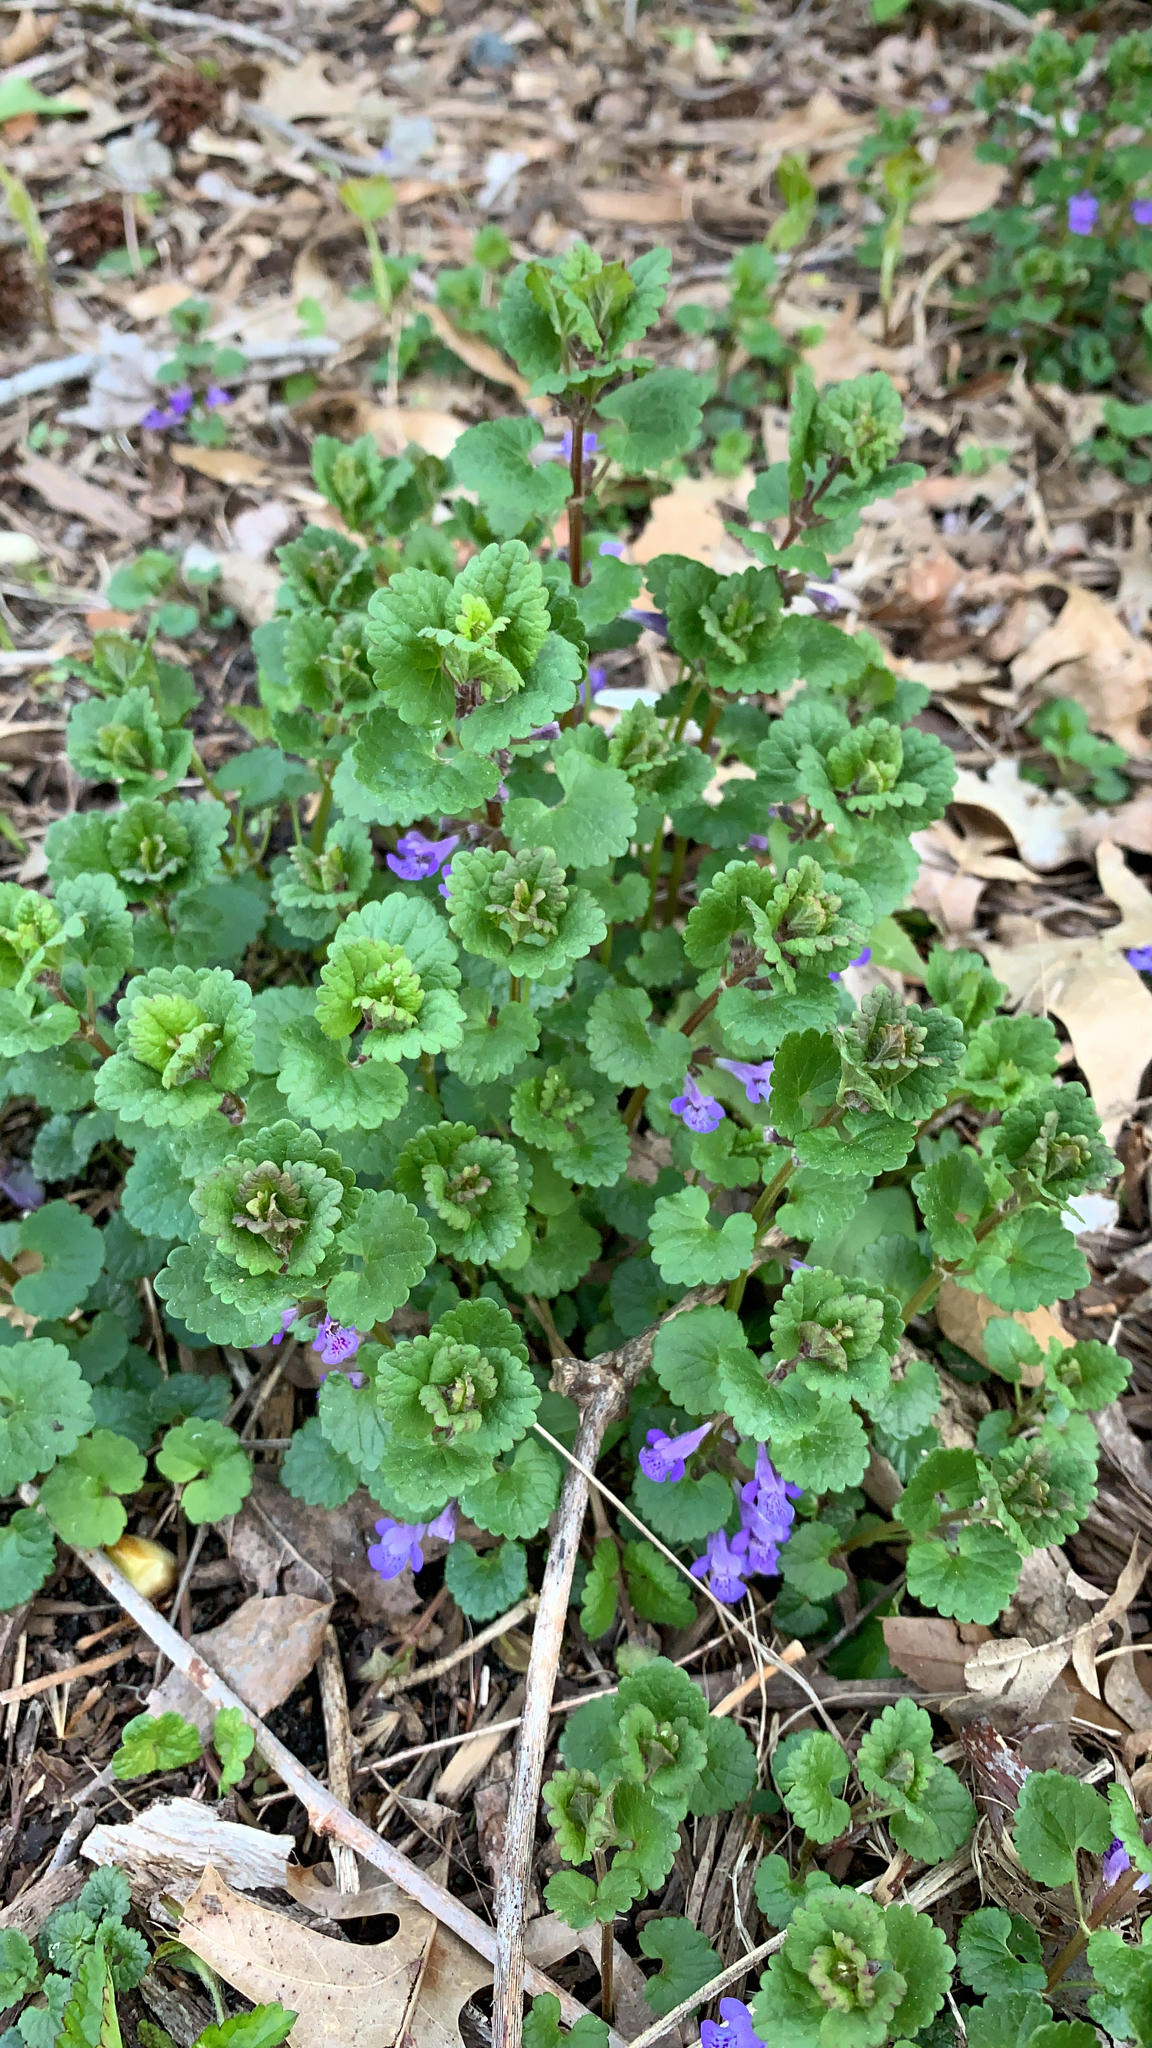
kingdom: Plantae
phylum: Tracheophyta
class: Magnoliopsida
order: Lamiales
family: Lamiaceae
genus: Glechoma
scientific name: Glechoma hederacea
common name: Ground ivy
